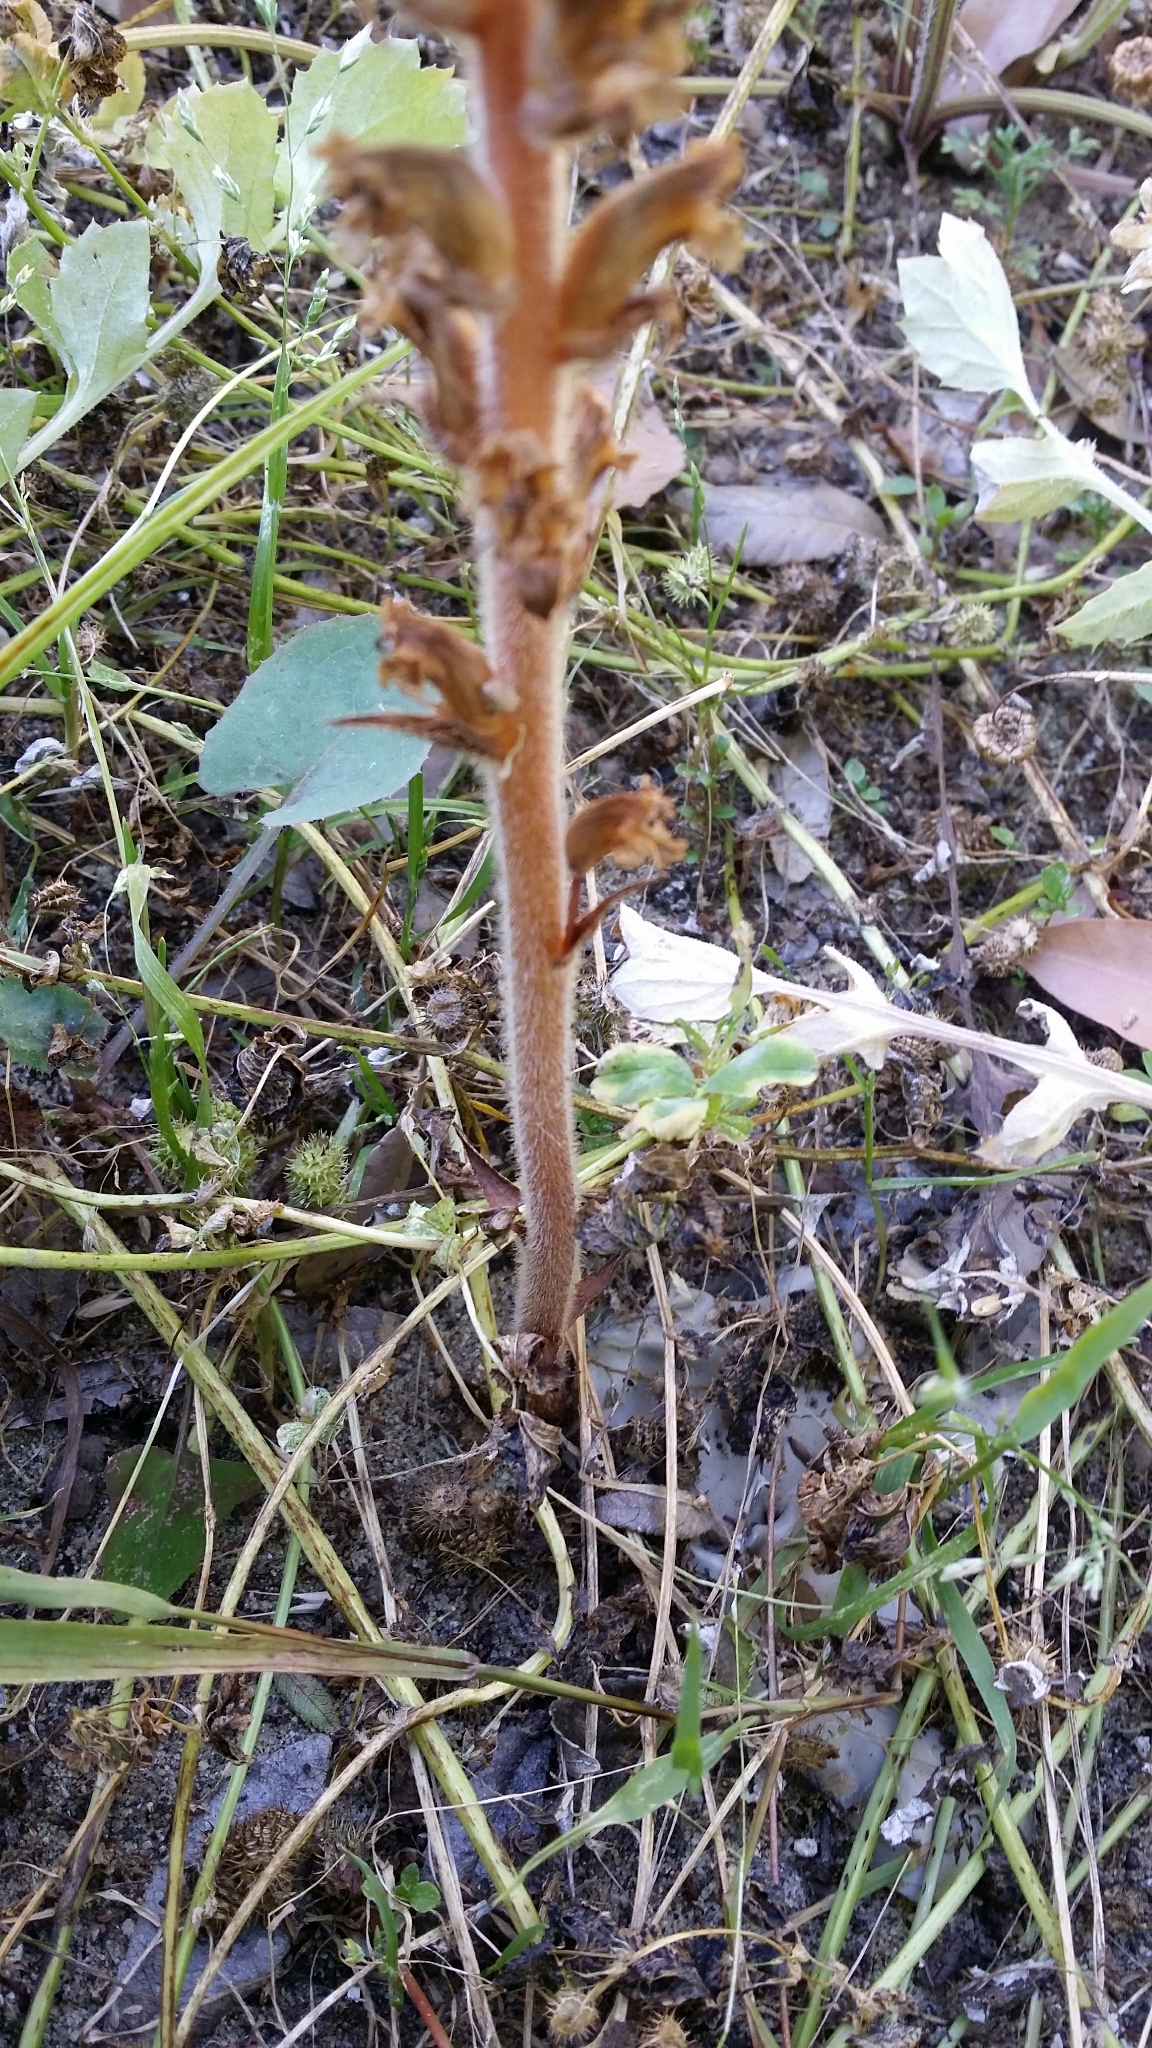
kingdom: Plantae
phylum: Tracheophyta
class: Magnoliopsida
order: Lamiales
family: Orobanchaceae
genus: Orobanche
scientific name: Orobanche minor
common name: Common broomrape
